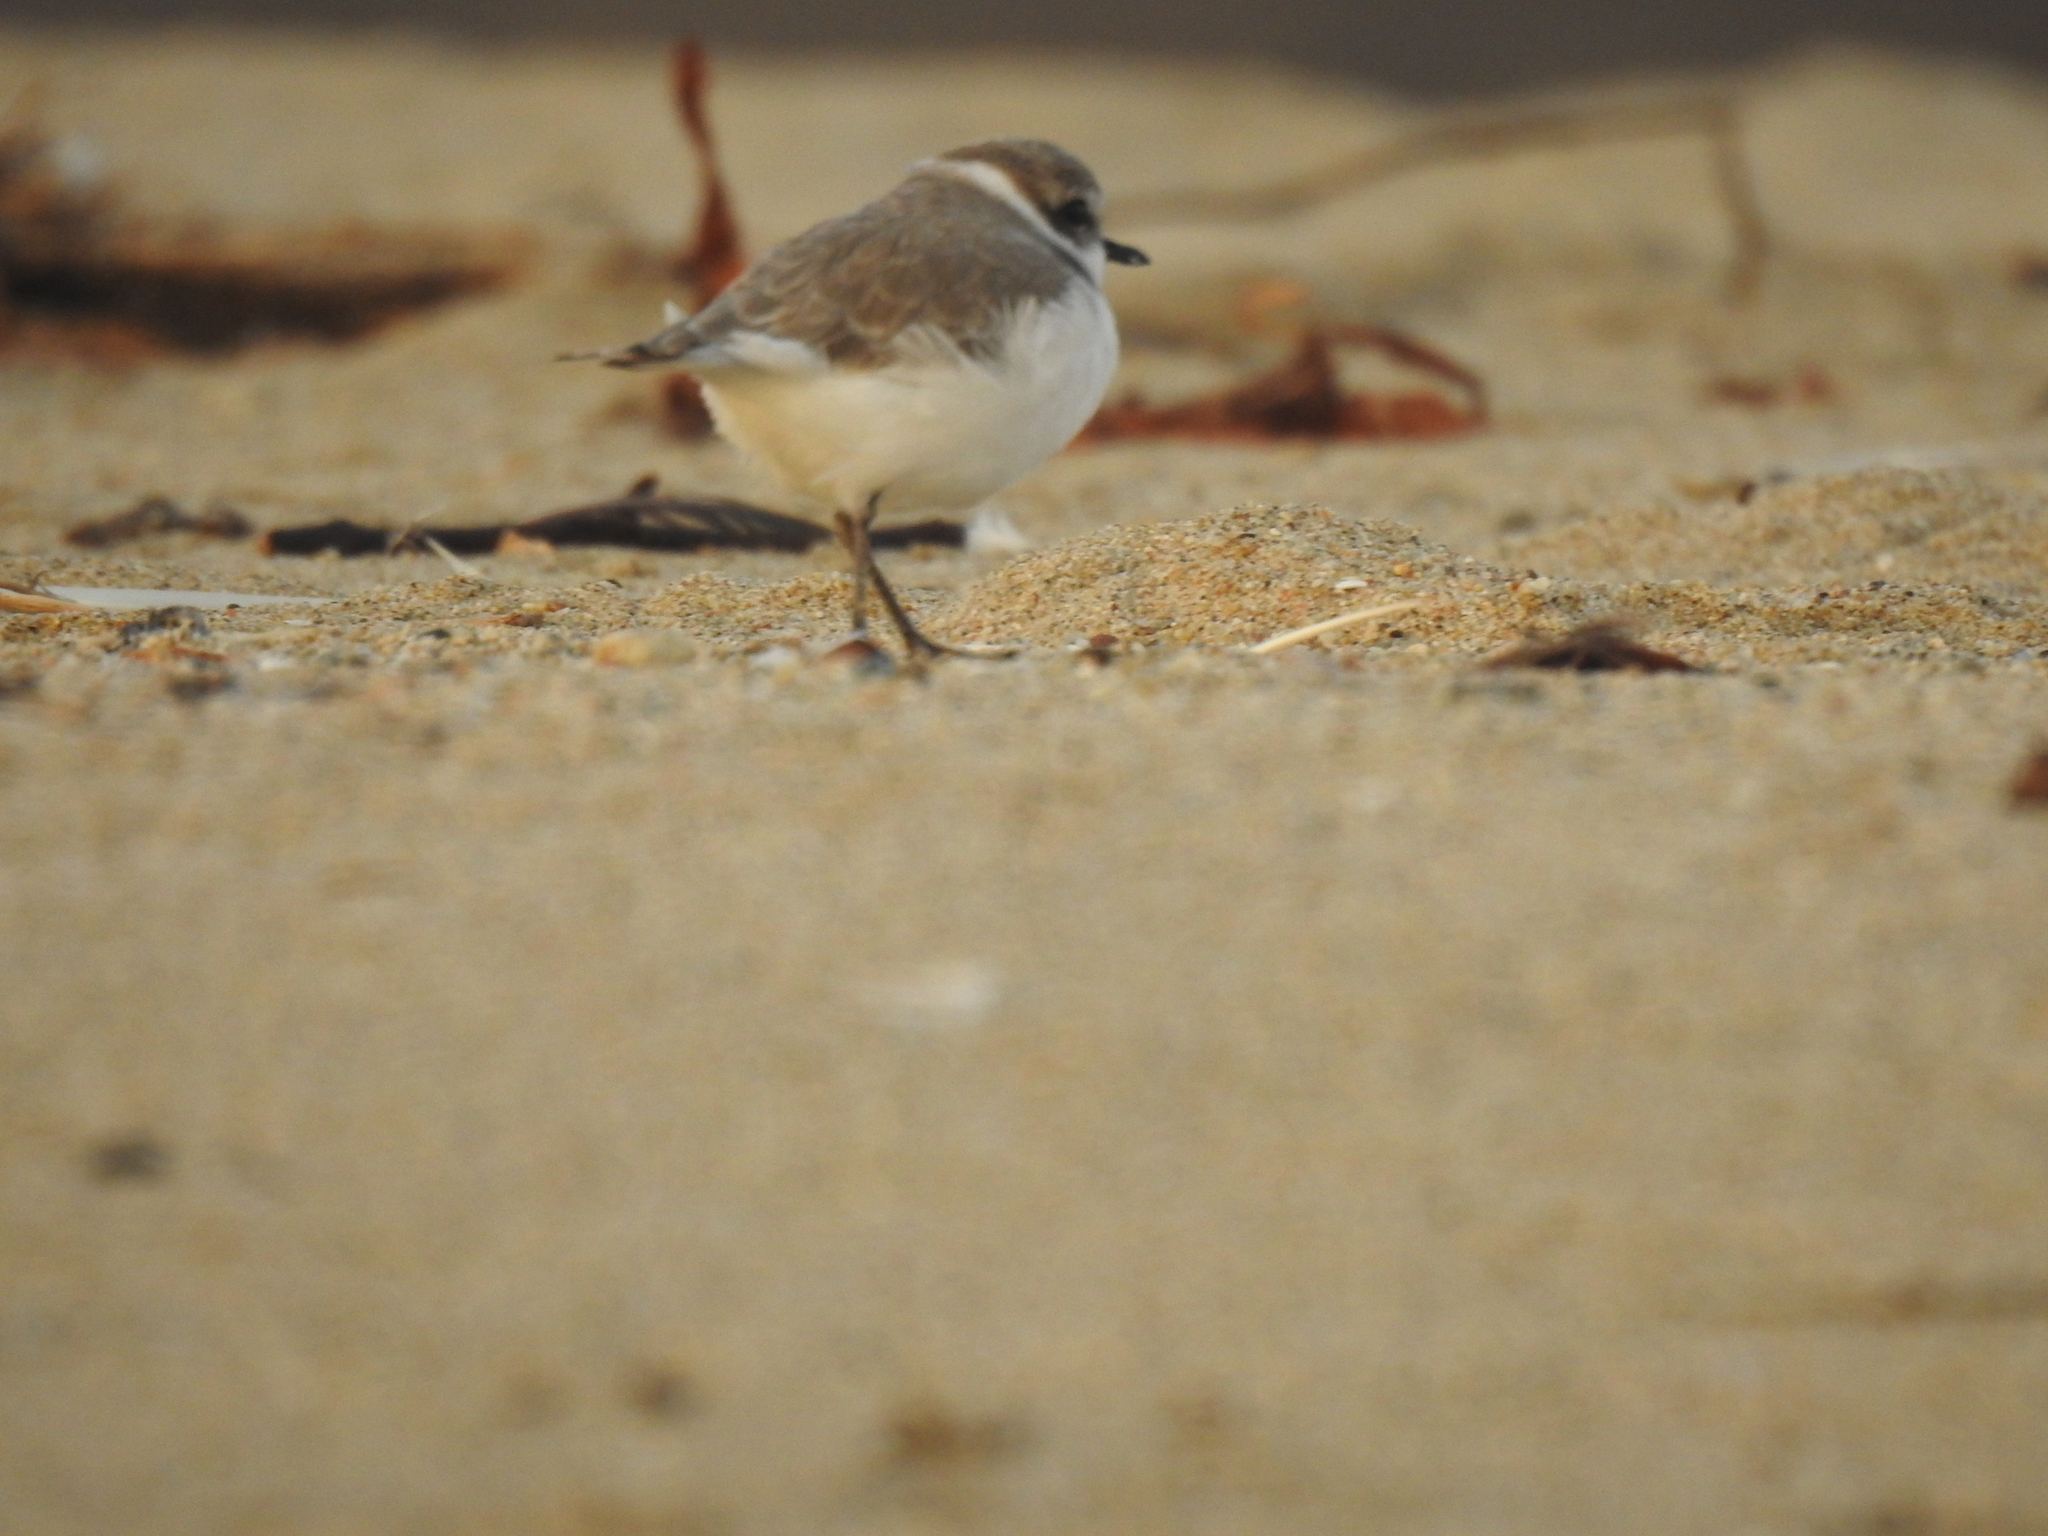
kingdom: Animalia
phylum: Chordata
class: Aves
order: Charadriiformes
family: Charadriidae
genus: Anarhynchus
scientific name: Anarhynchus
